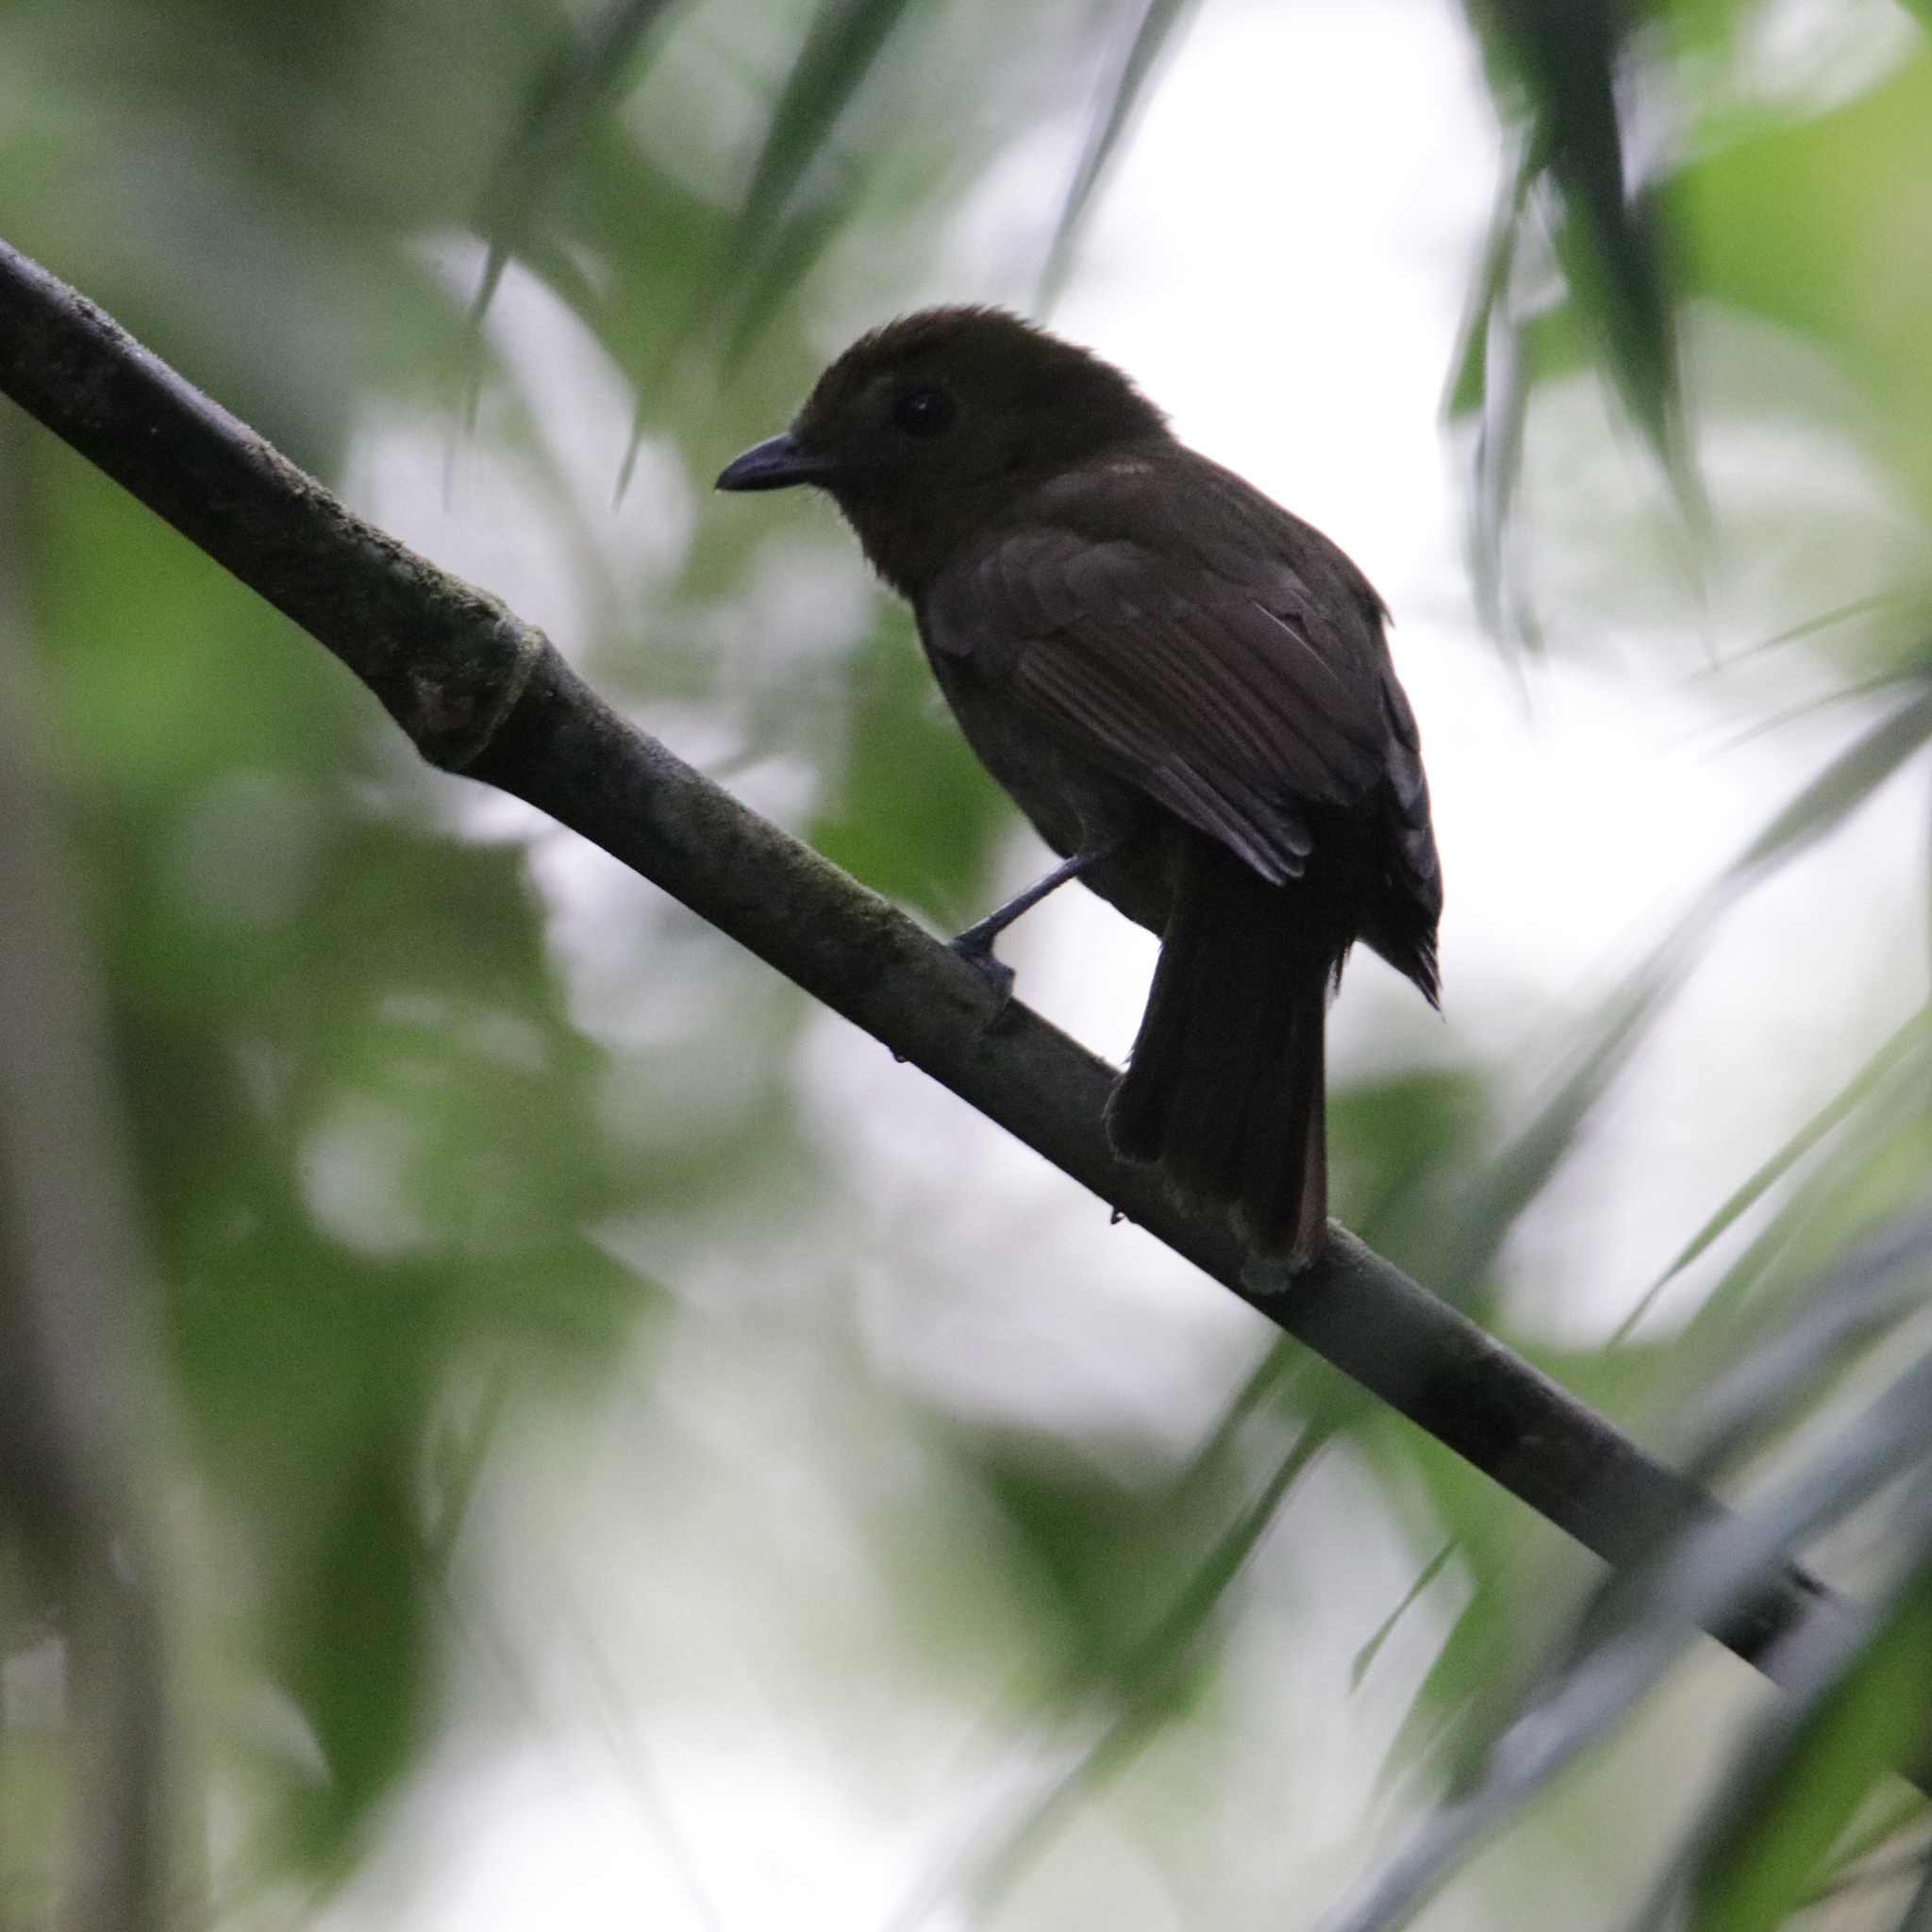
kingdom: Animalia
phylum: Chordata
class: Aves
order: Passeriformes
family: Cotingidae
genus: Schiffornis
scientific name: Schiffornis turdina
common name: Brown-winged schiffornis
